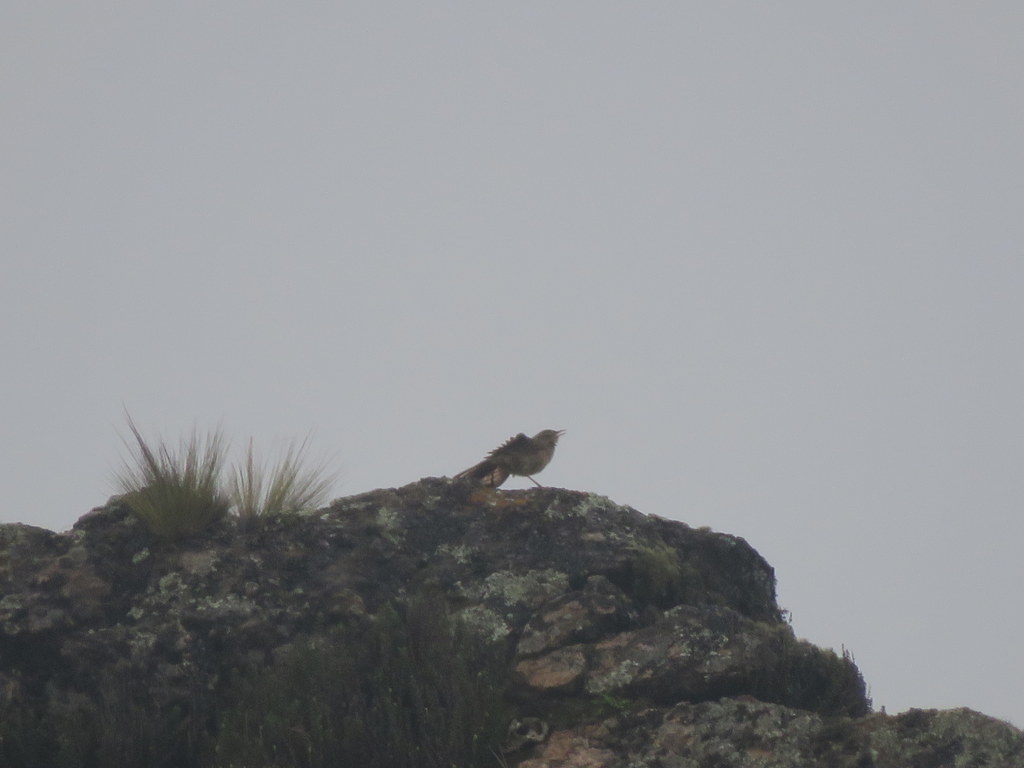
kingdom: Animalia
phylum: Chordata
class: Aves
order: Passeriformes
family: Troglodytidae
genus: Troglodytes
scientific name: Troglodytes aedon
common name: House wren
